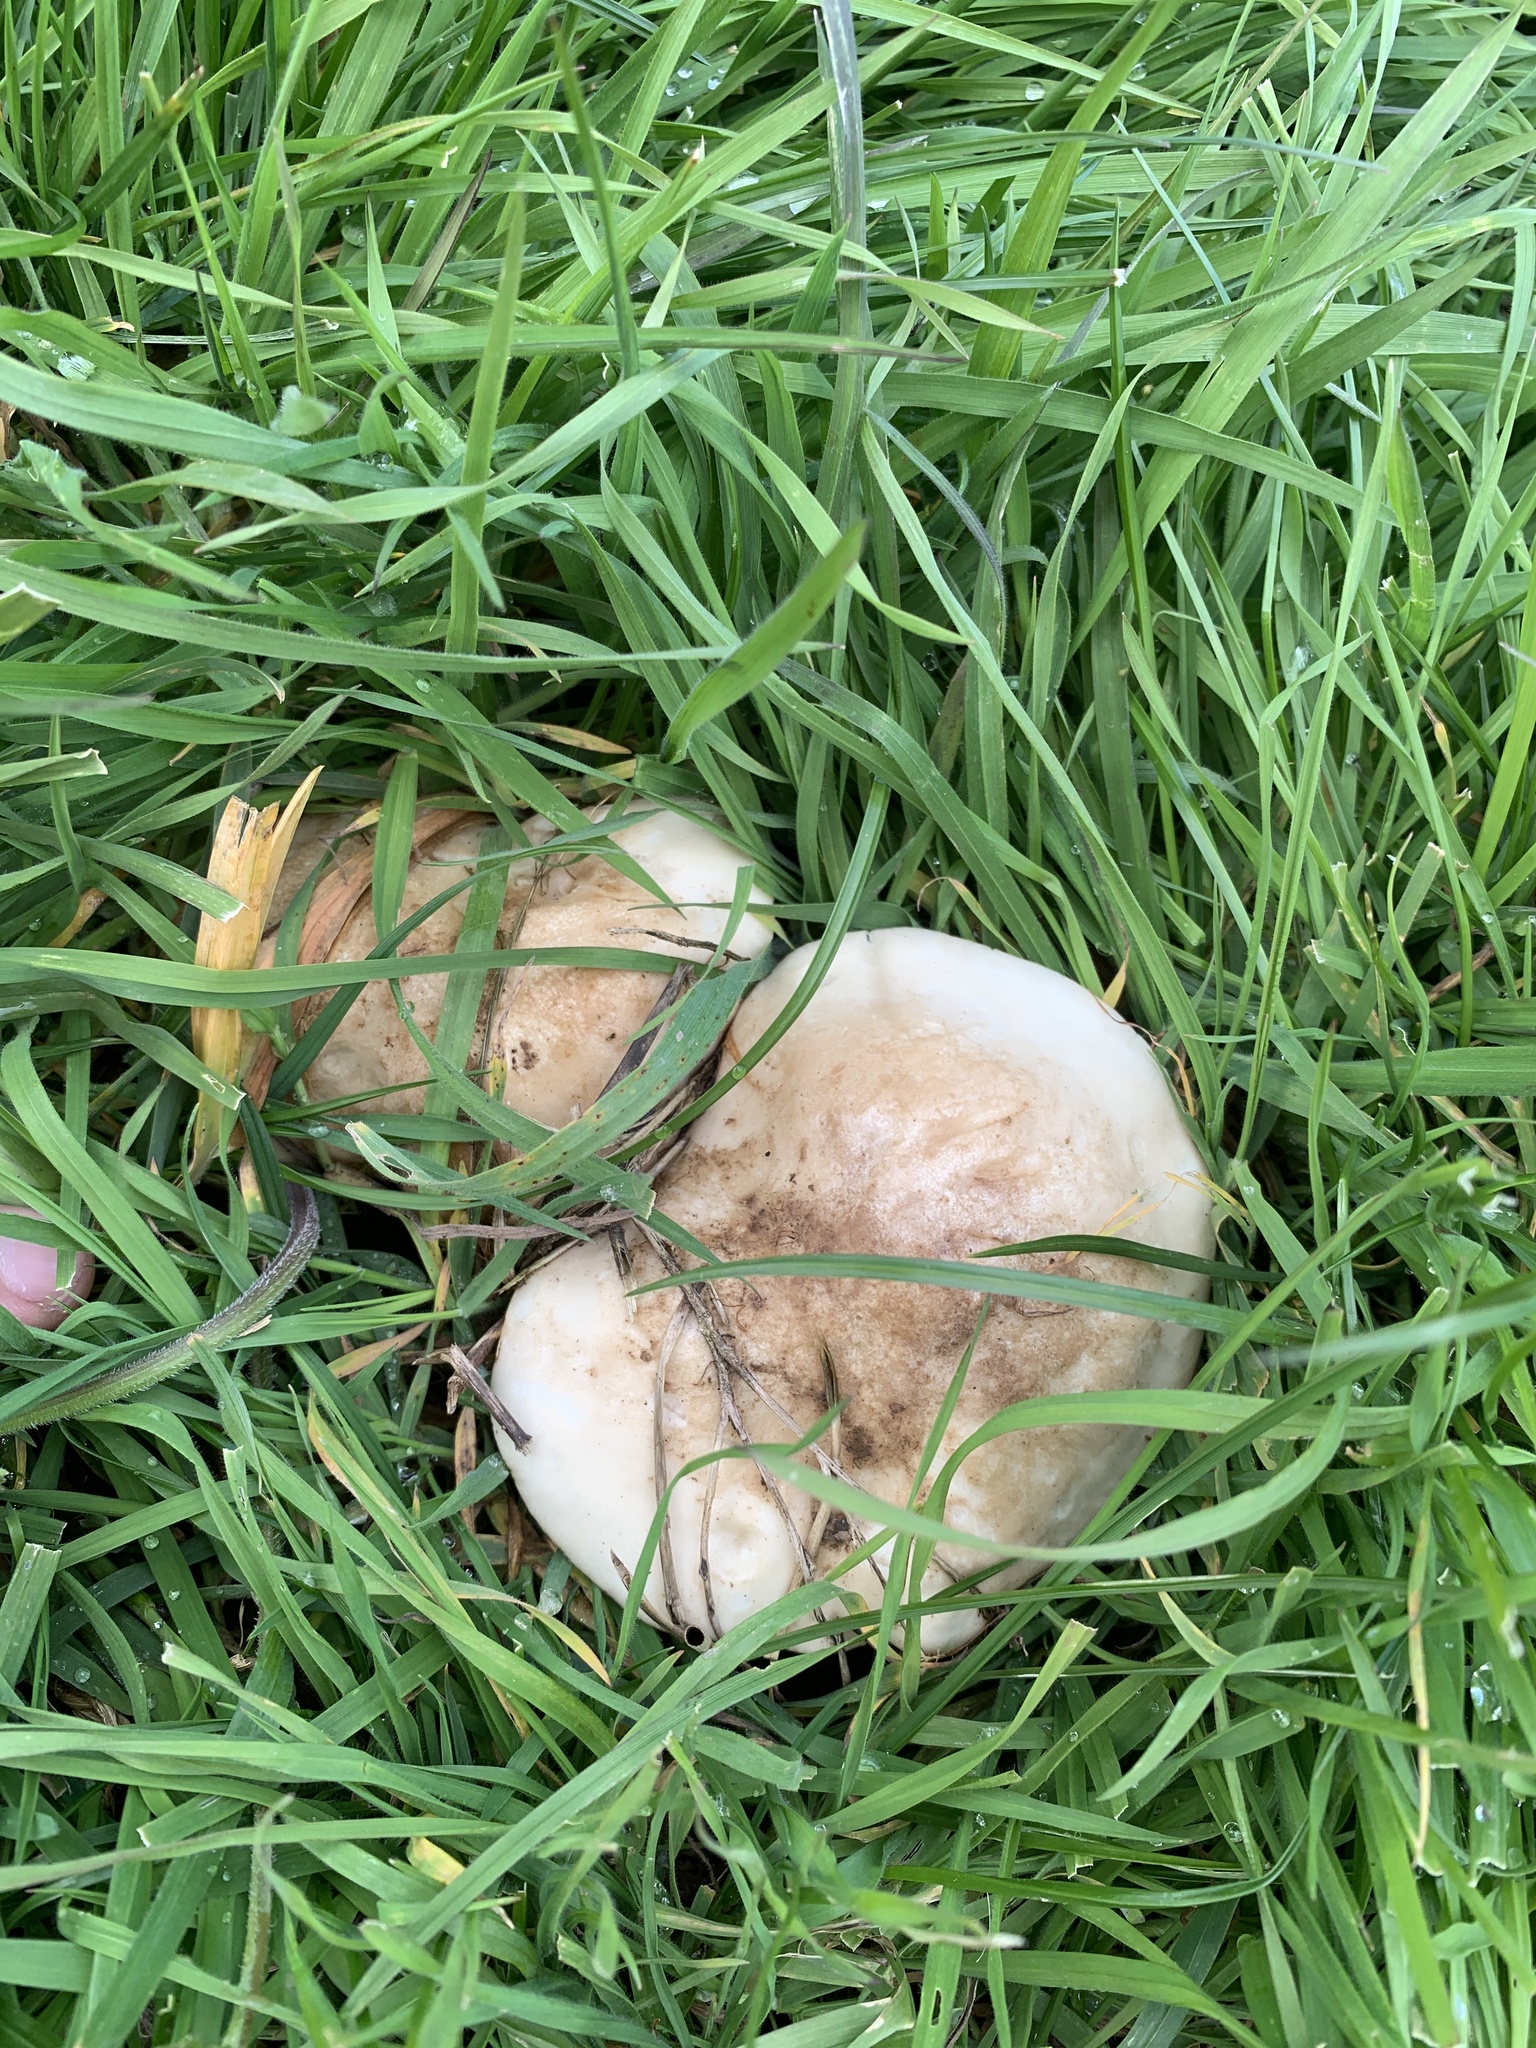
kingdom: Fungi
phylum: Basidiomycota
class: Agaricomycetes
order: Agaricales
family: Lyophyllaceae
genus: Calocybe
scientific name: Calocybe gambosa
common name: St. george's mushroom
